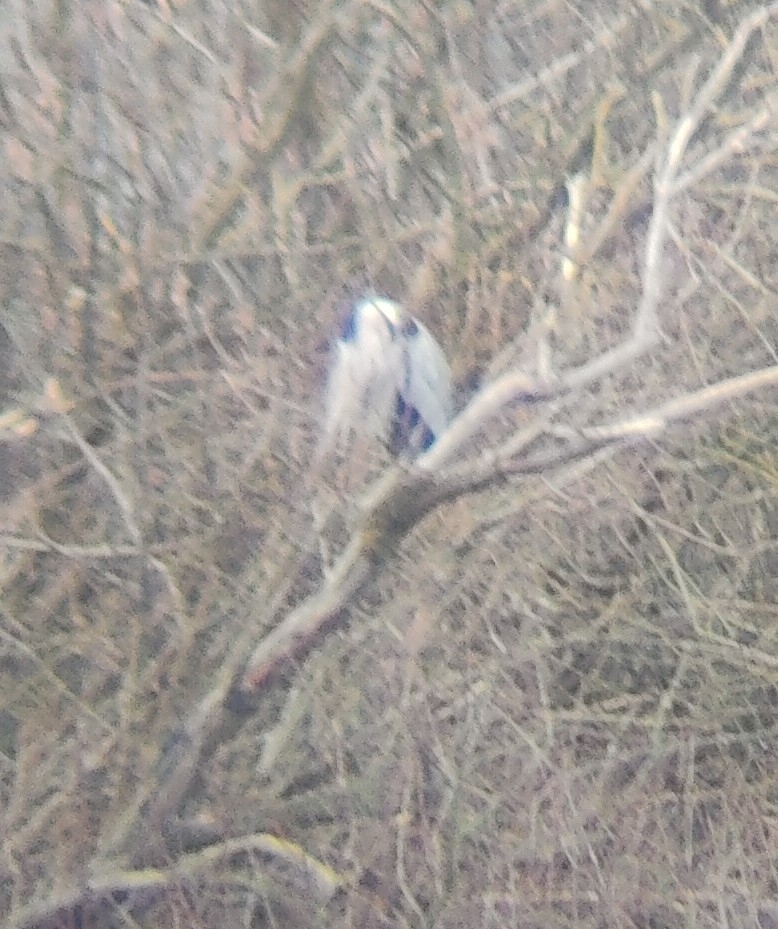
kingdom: Animalia
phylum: Chordata
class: Aves
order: Pelecaniformes
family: Ardeidae
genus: Ardea
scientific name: Ardea cinerea
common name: Grey heron
